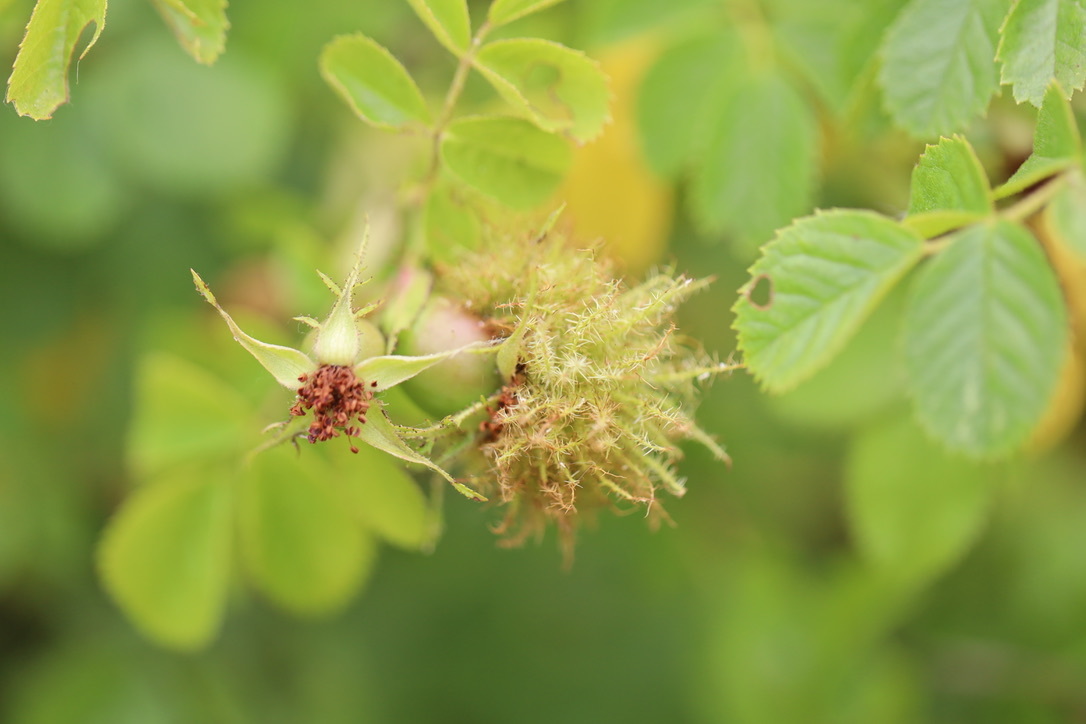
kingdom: Animalia
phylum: Arthropoda
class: Insecta
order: Hymenoptera
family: Cynipidae
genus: Diplolepis
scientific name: Diplolepis rosae
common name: Bedeguar gall
